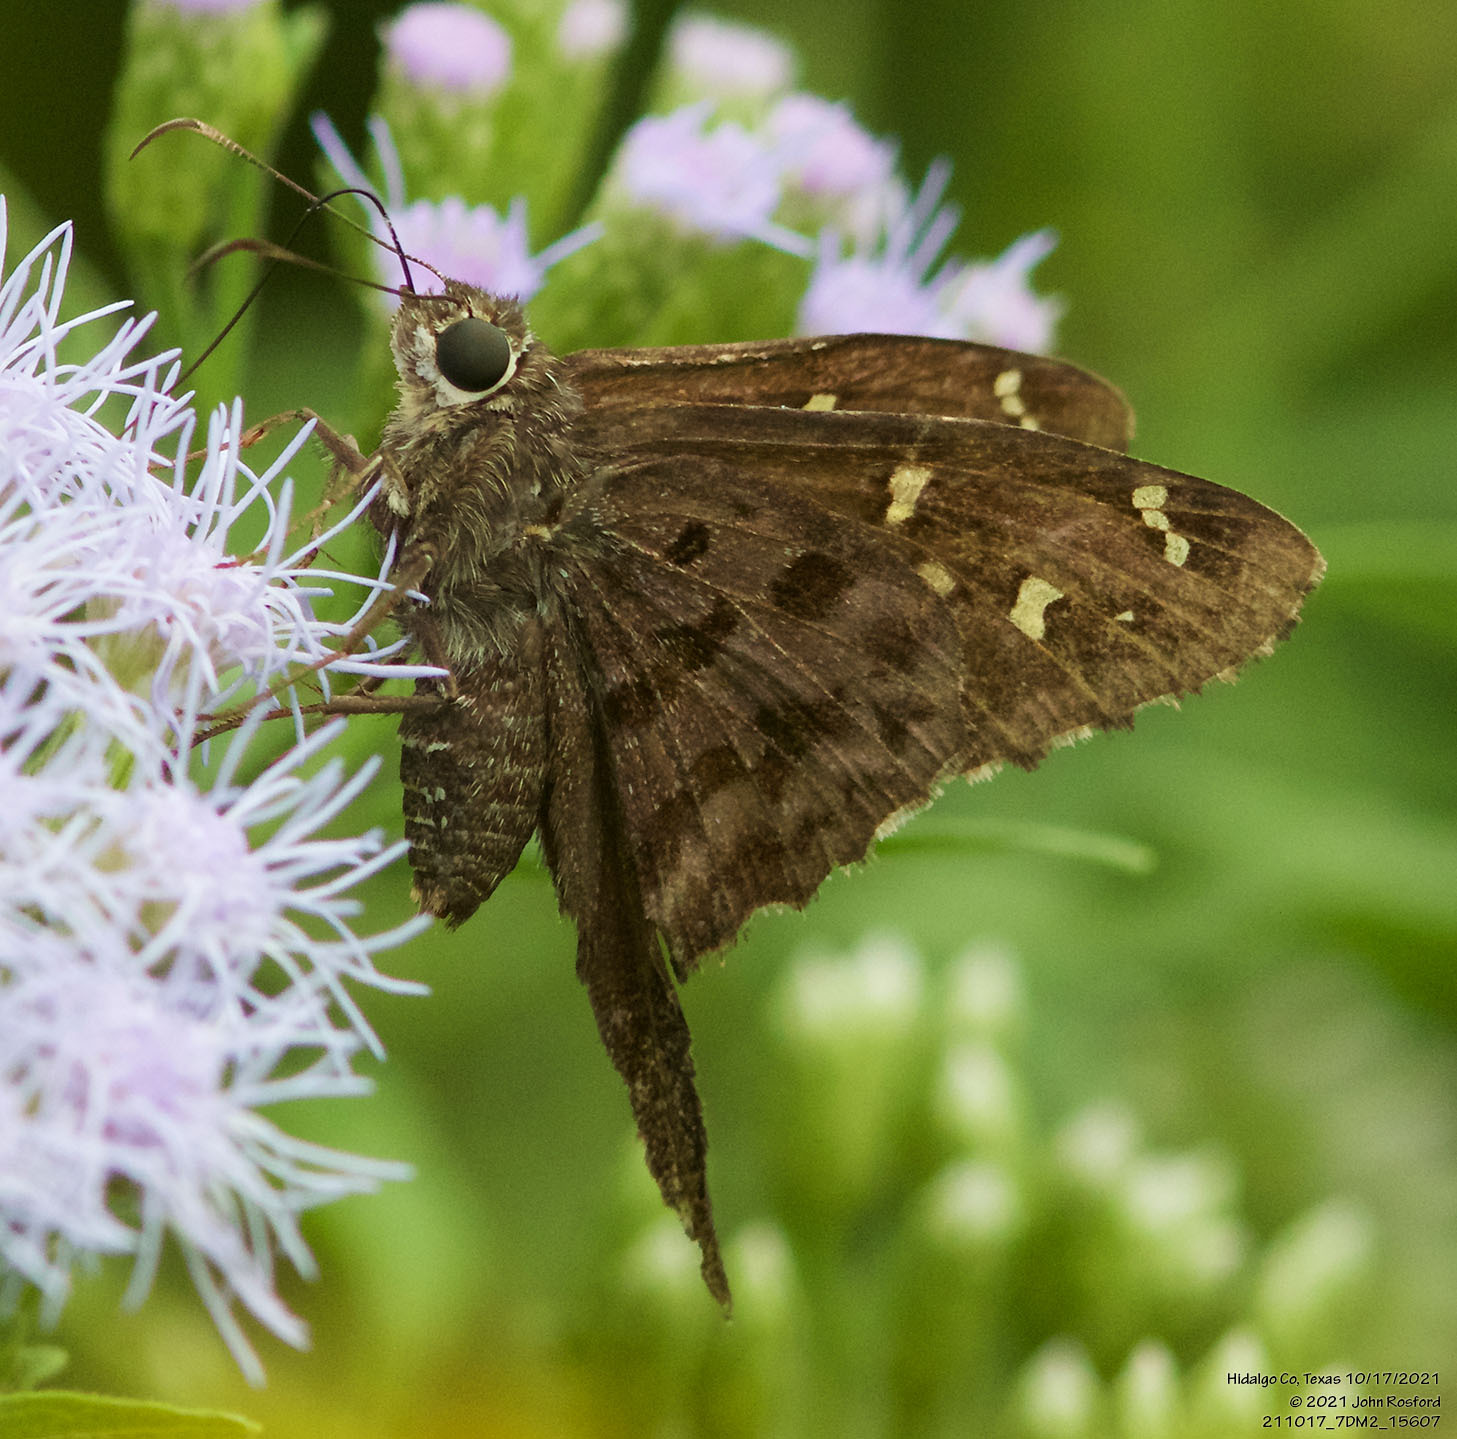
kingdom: Animalia
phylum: Arthropoda
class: Insecta
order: Lepidoptera
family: Hesperiidae
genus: Thorybes
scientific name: Thorybes
